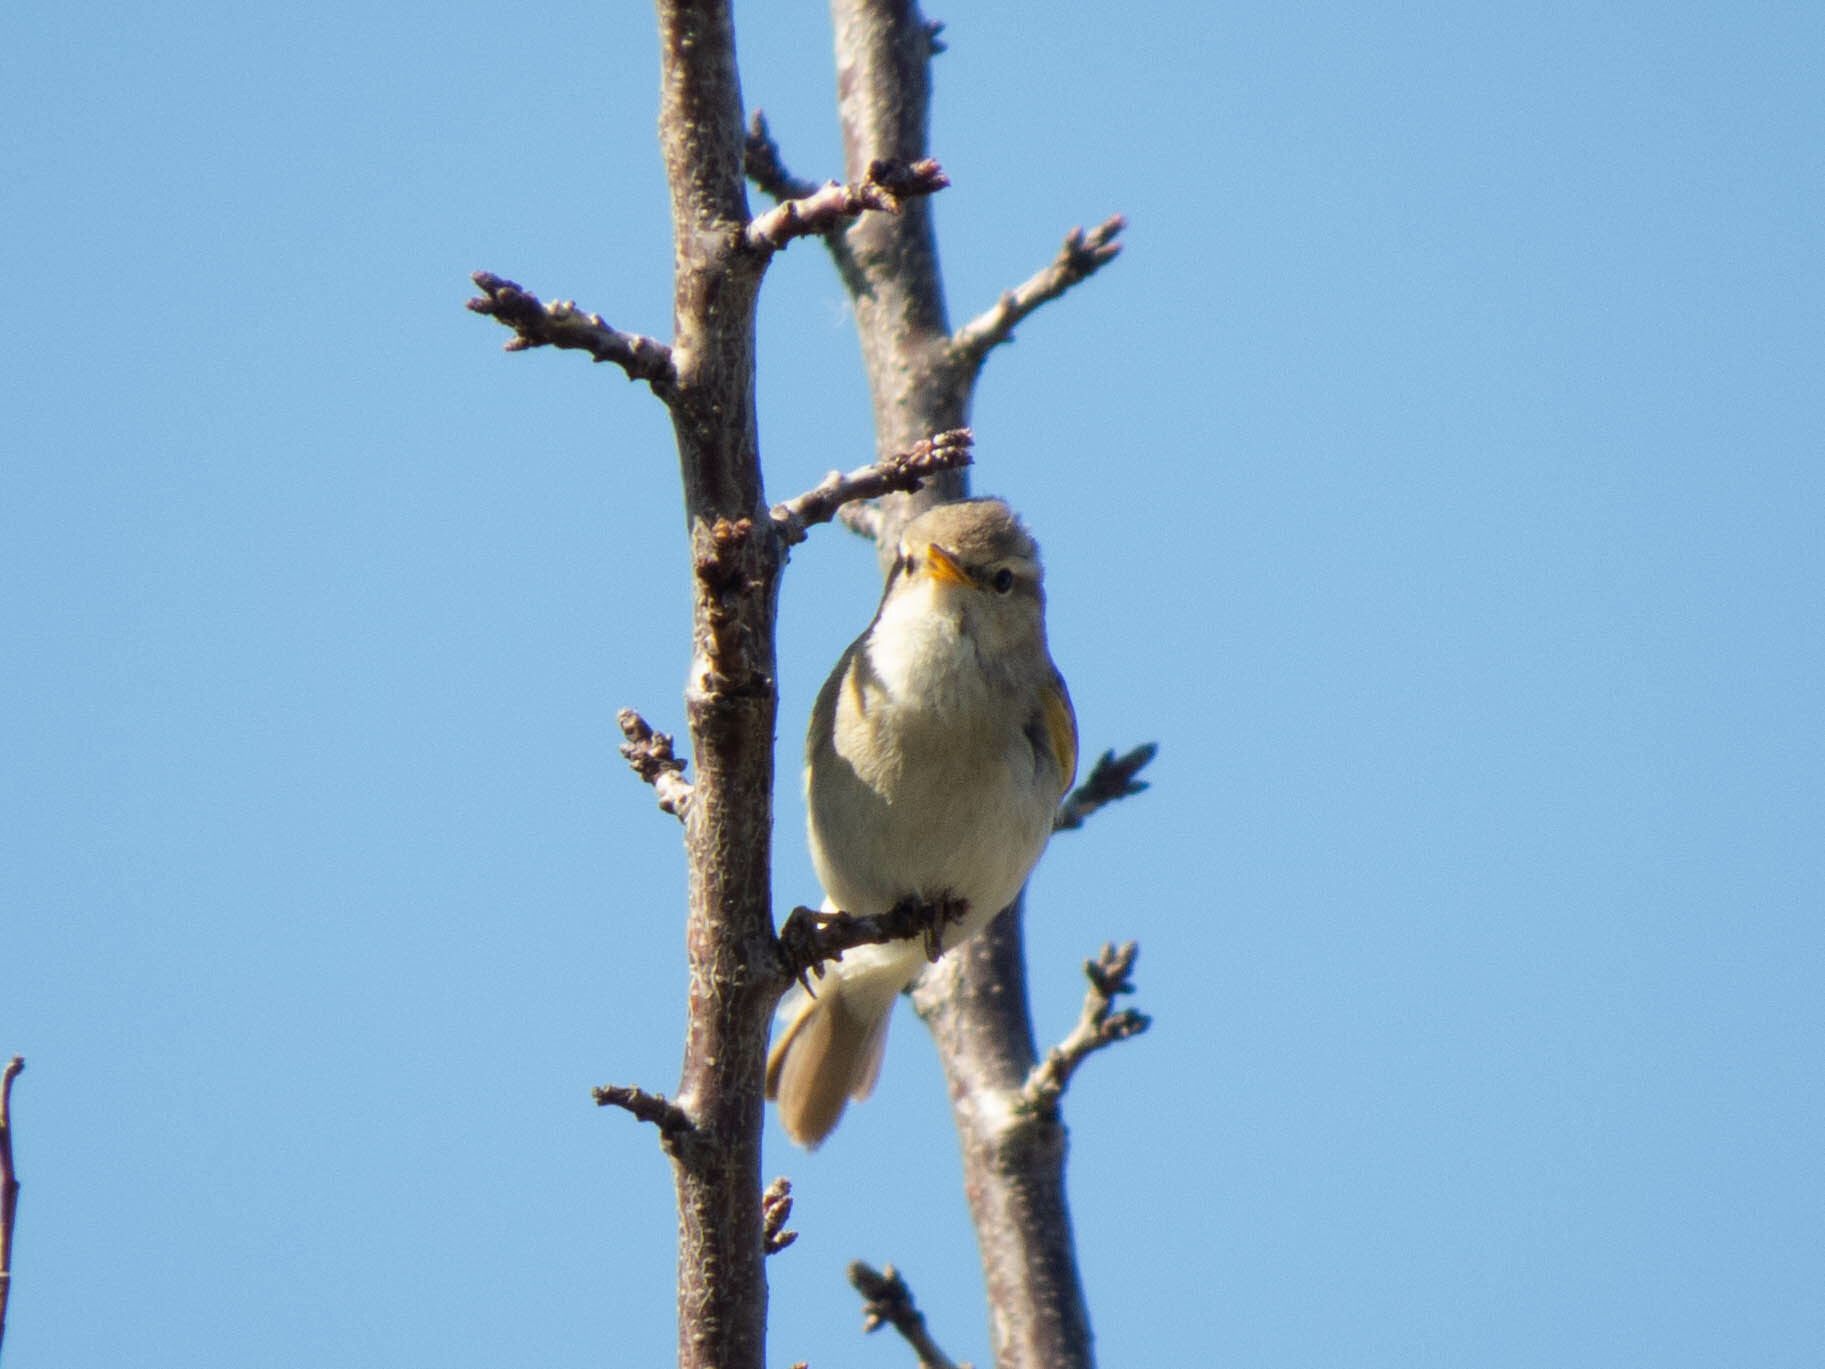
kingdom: Animalia
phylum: Chordata
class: Aves
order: Passeriformes
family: Phylloscopidae
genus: Phylloscopus
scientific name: Phylloscopus collybita
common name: Common chiffchaff
